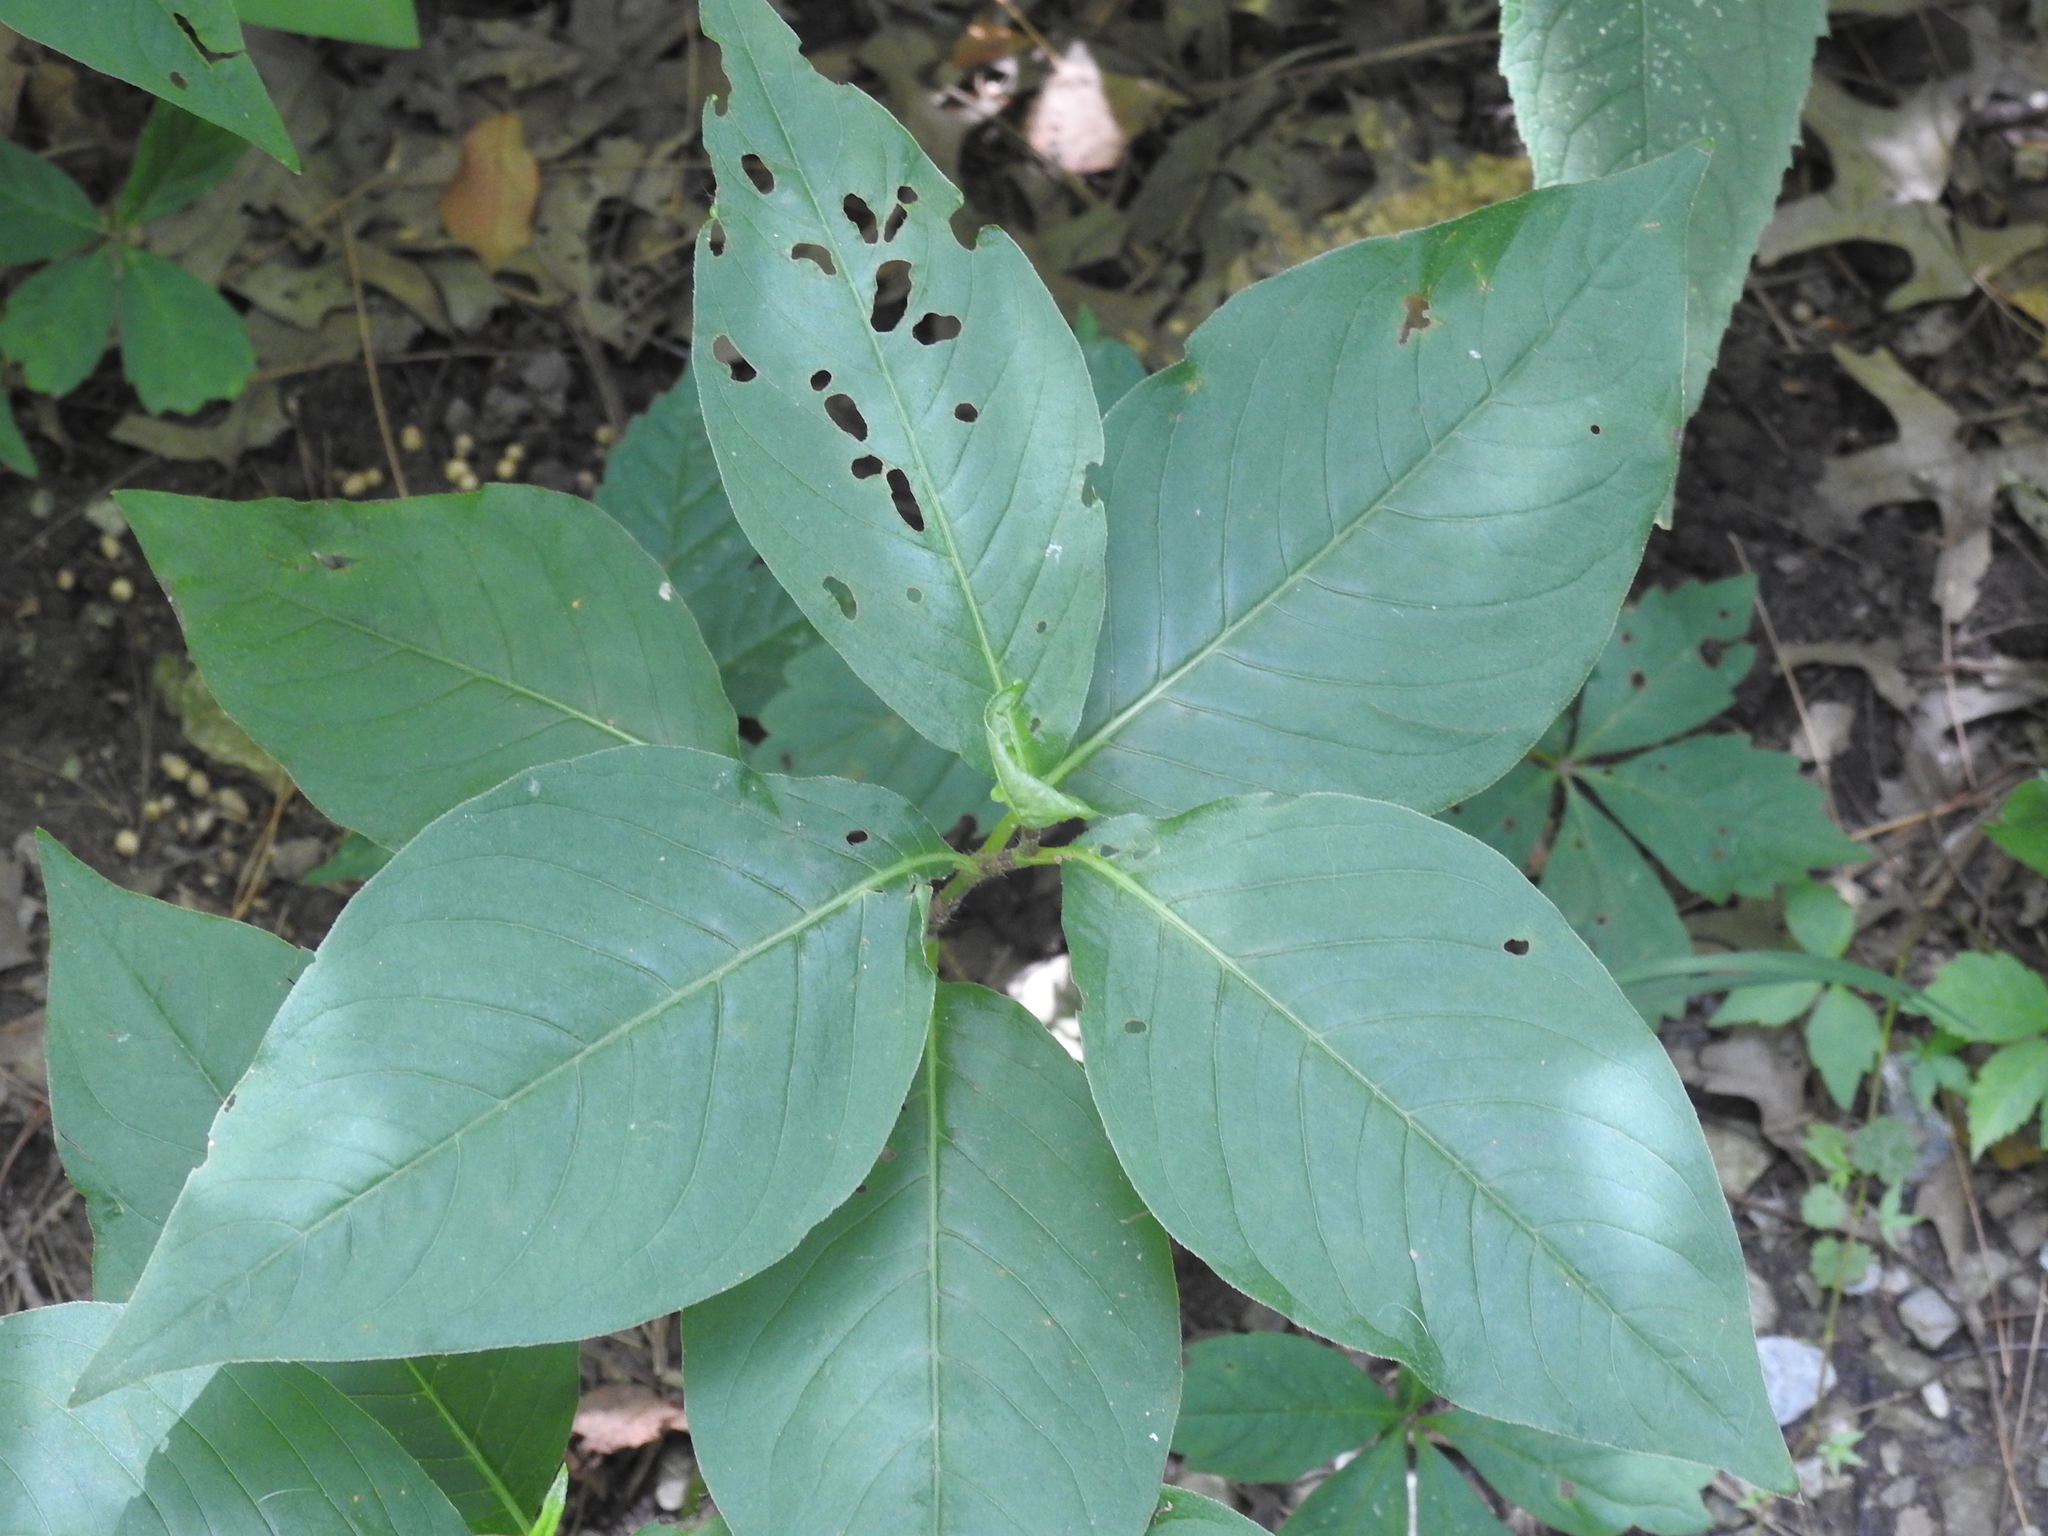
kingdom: Plantae
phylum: Tracheophyta
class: Magnoliopsida
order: Caryophyllales
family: Polygonaceae
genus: Persicaria
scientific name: Persicaria virginiana
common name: Jumpseed
